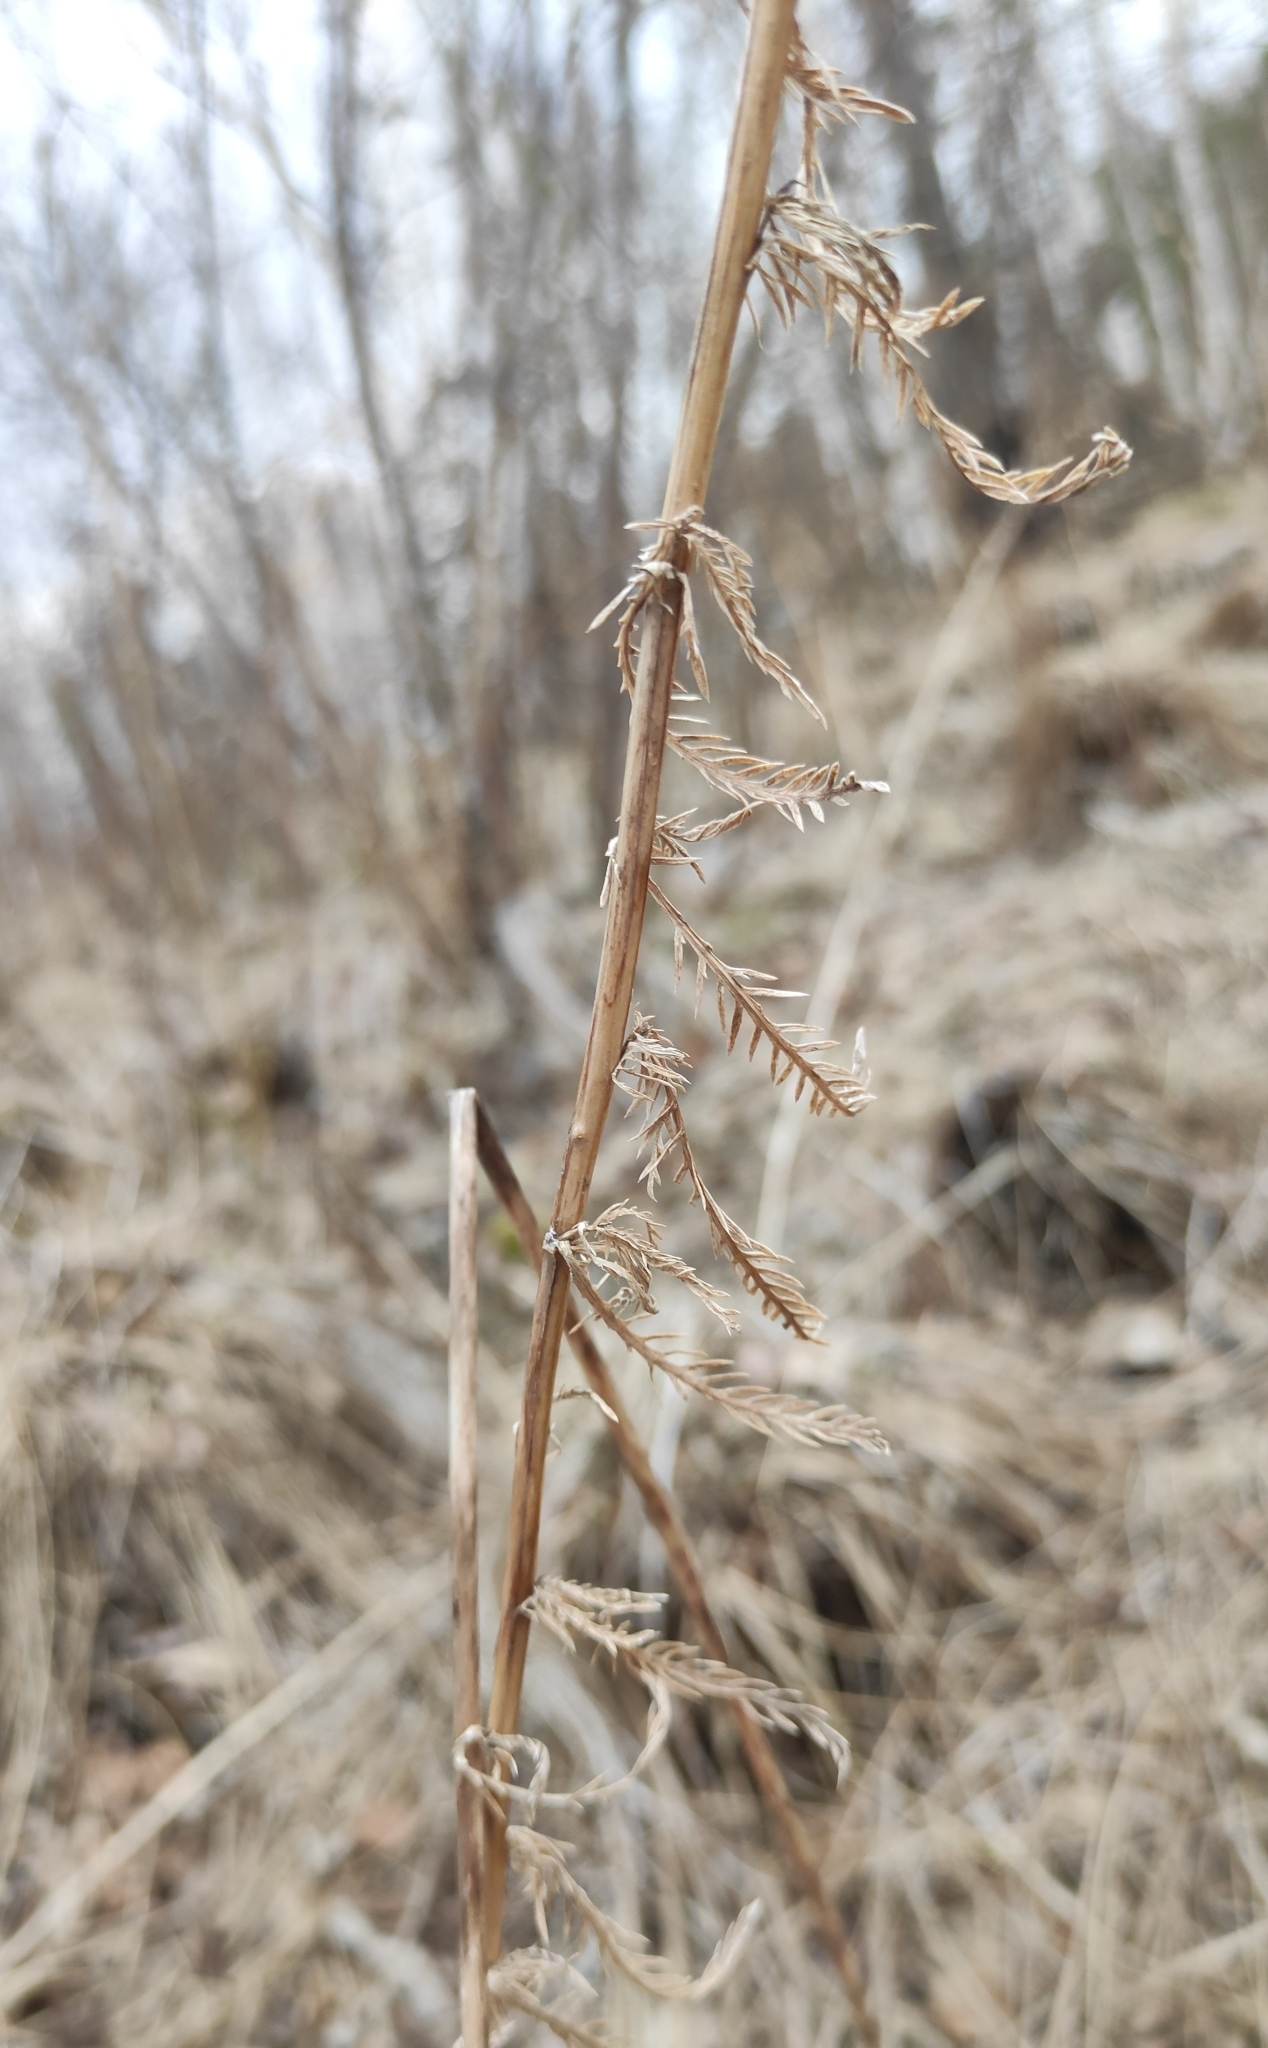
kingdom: Plantae
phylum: Tracheophyta
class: Magnoliopsida
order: Asterales
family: Asteraceae
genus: Achillea
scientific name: Achillea impatiens
